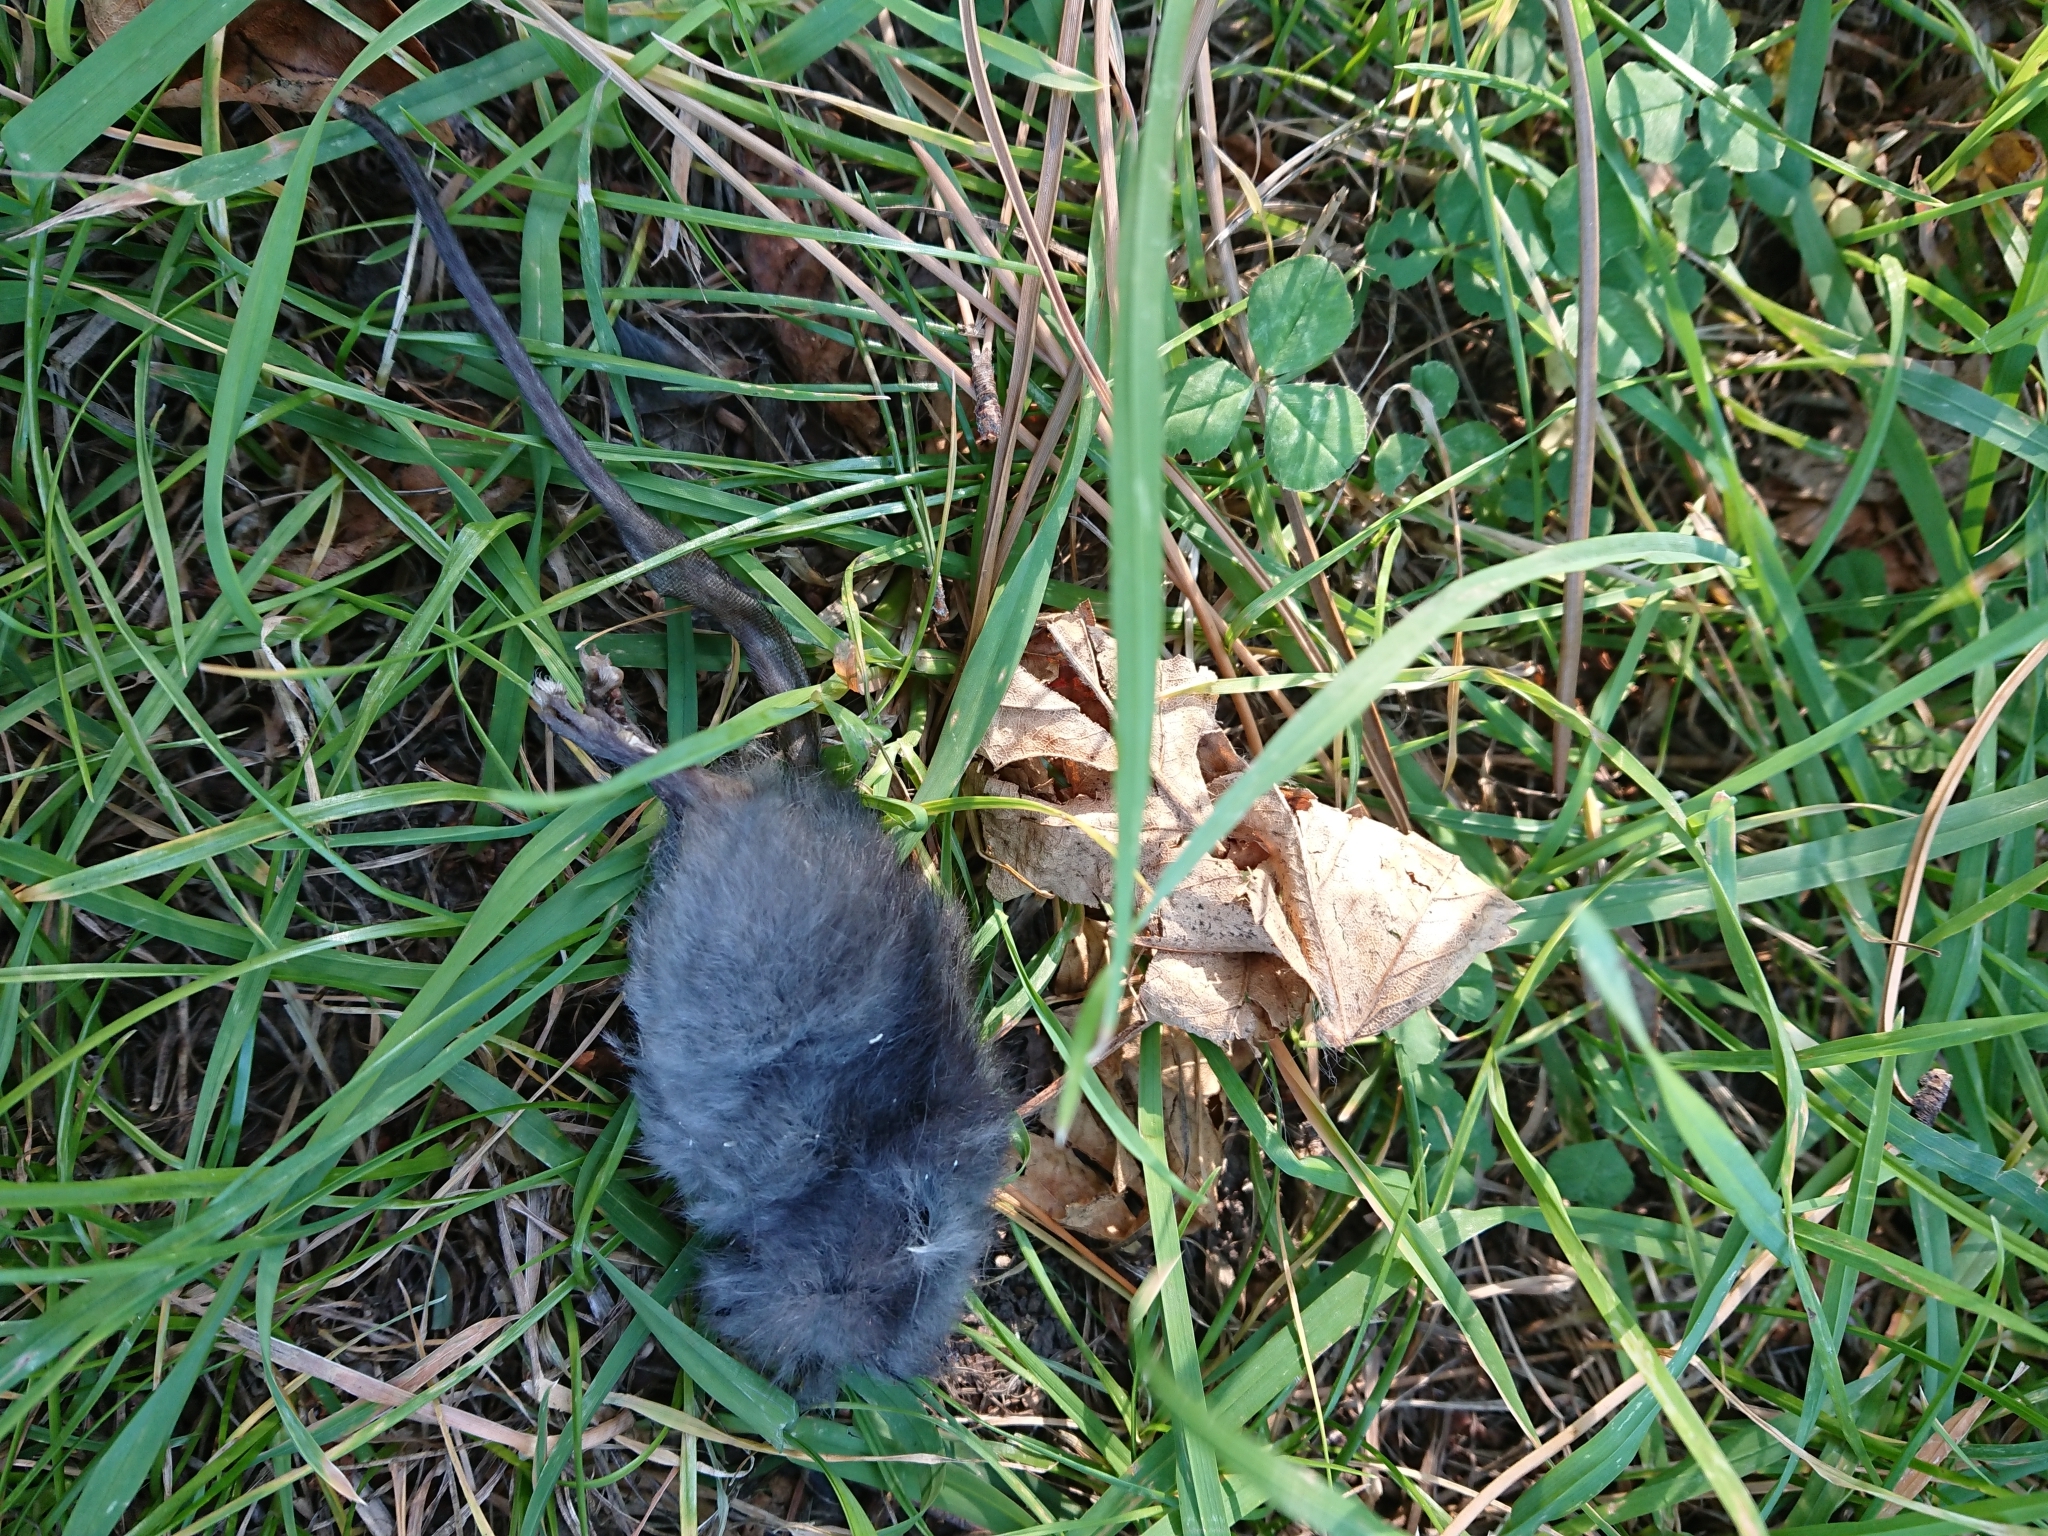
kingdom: Animalia
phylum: Chordata
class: Mammalia
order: Rodentia
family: Muridae
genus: Rattus
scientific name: Rattus rattus
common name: Black rat
